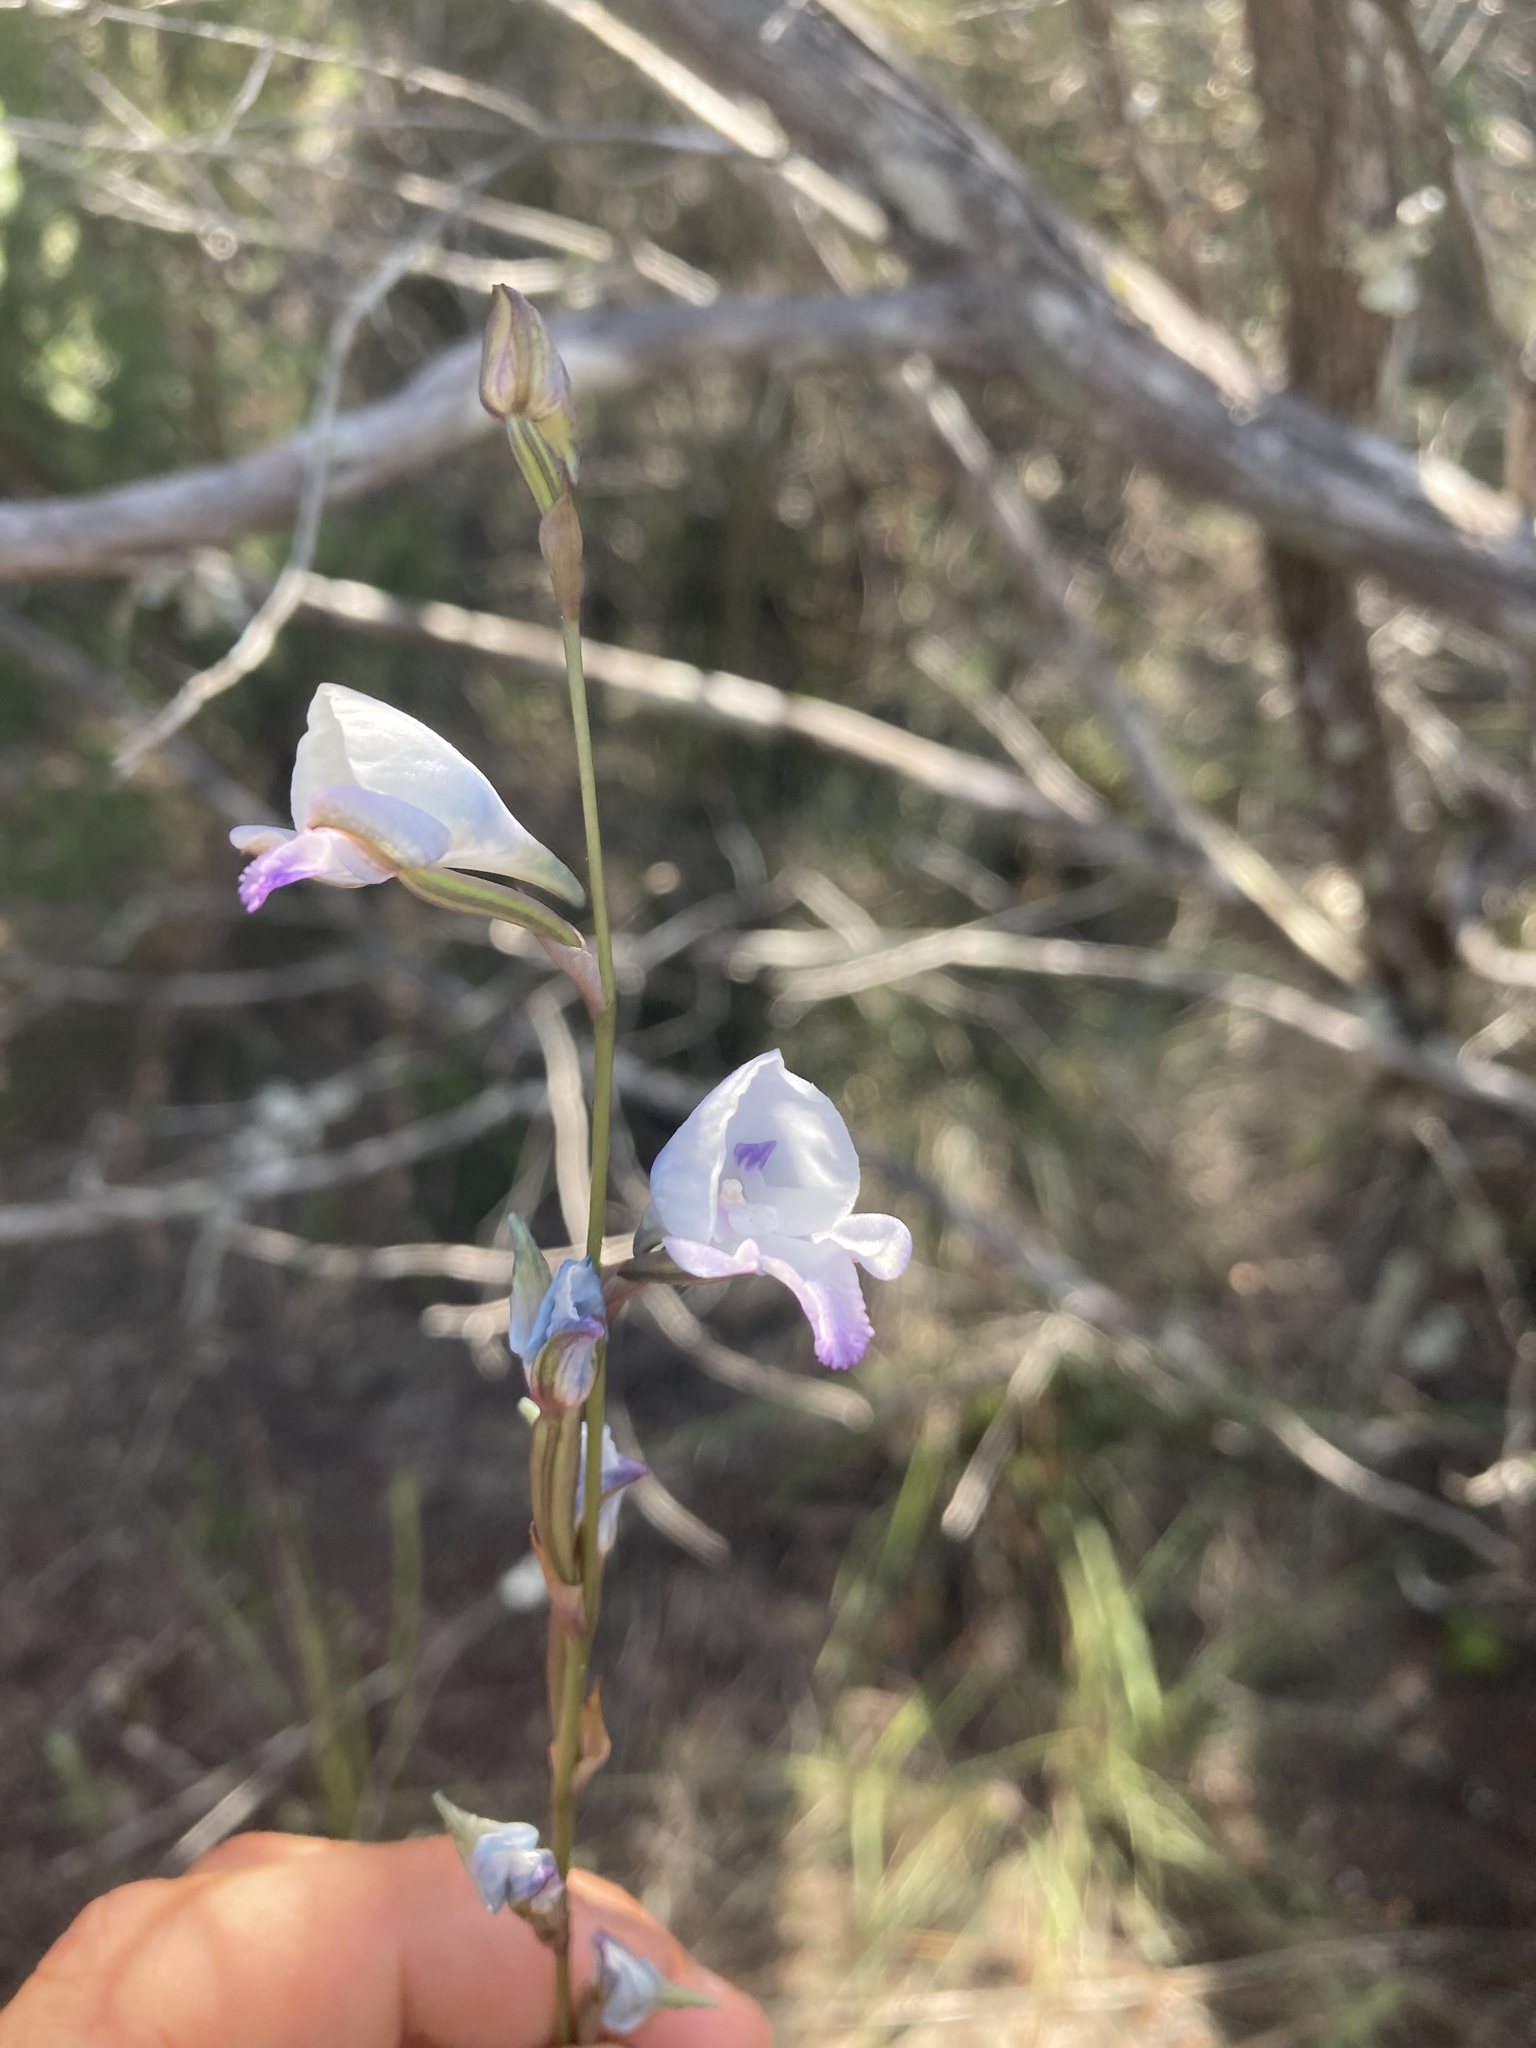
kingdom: Plantae
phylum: Tracheophyta
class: Liliopsida
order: Asparagales
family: Orchidaceae
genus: Disa
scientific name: Disa hians
